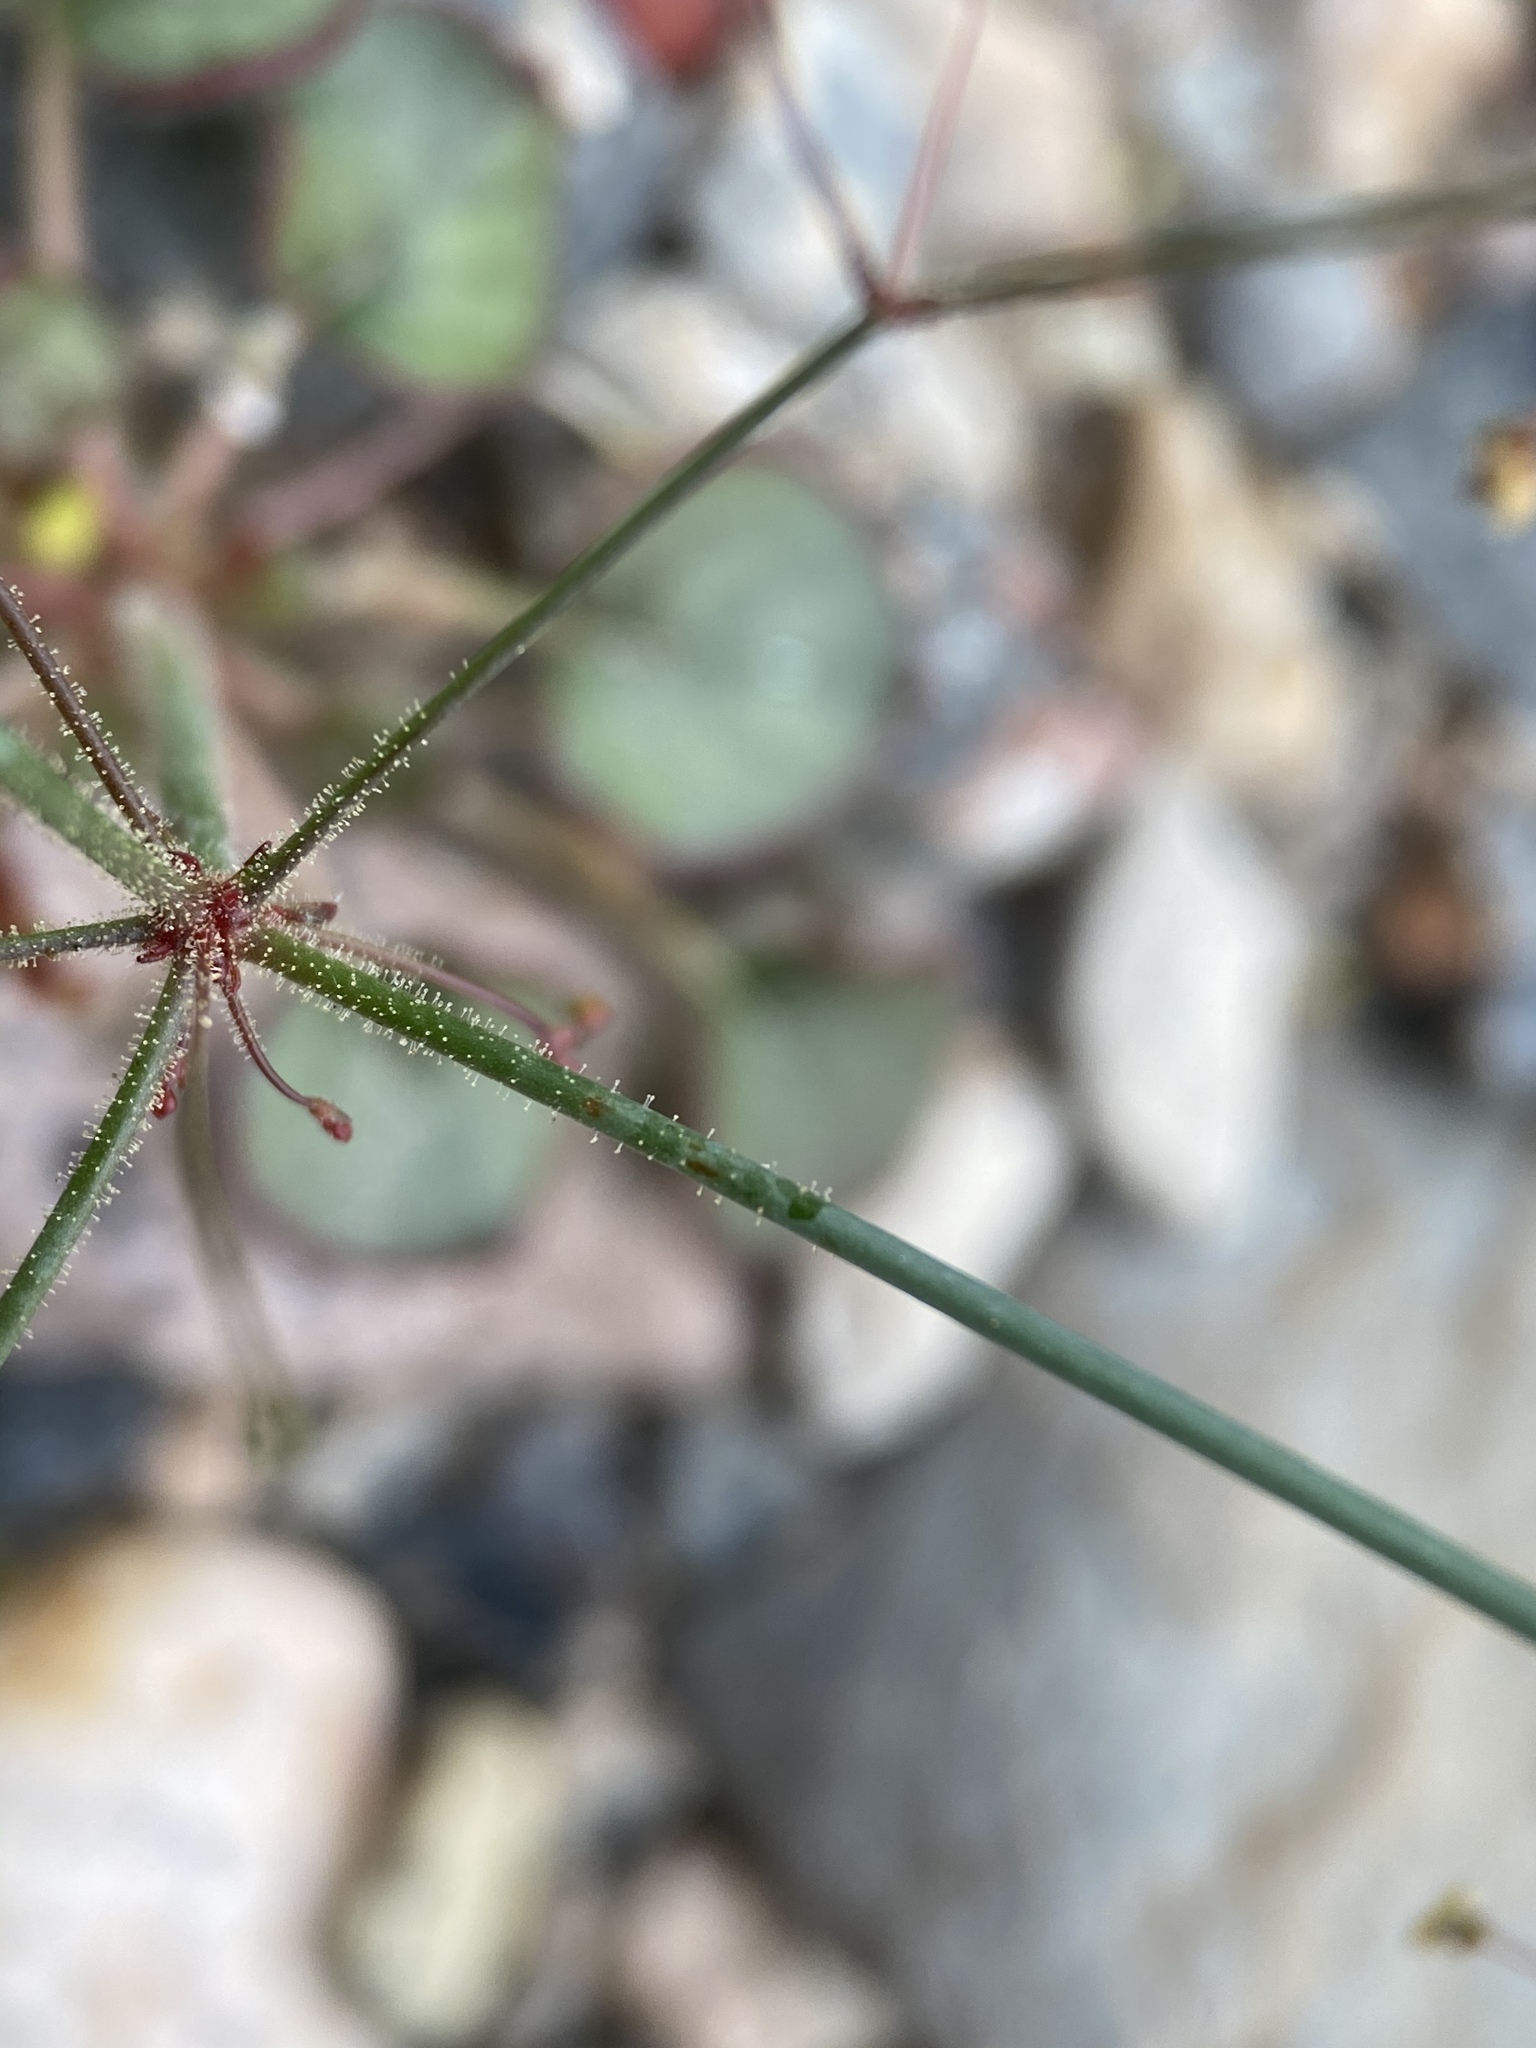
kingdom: Plantae
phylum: Tracheophyta
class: Magnoliopsida
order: Caryophyllales
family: Polygonaceae
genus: Eriogonum
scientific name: Eriogonum contiguum
